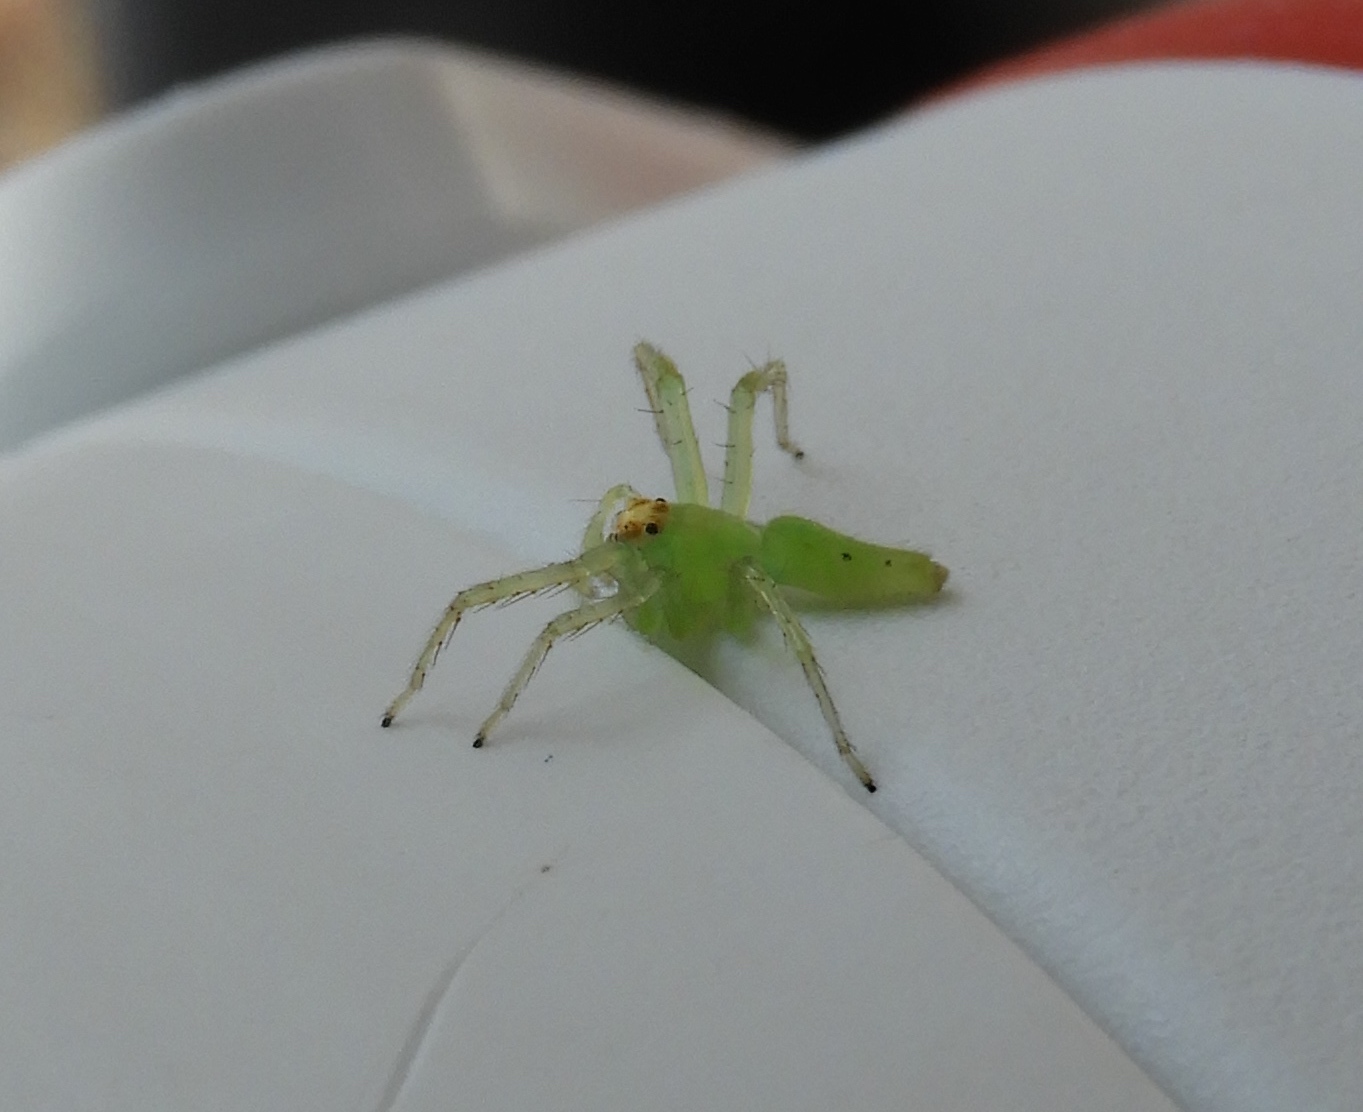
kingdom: Animalia
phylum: Arthropoda
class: Arachnida
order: Araneae
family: Salticidae
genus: Lyssomanes
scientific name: Lyssomanes
